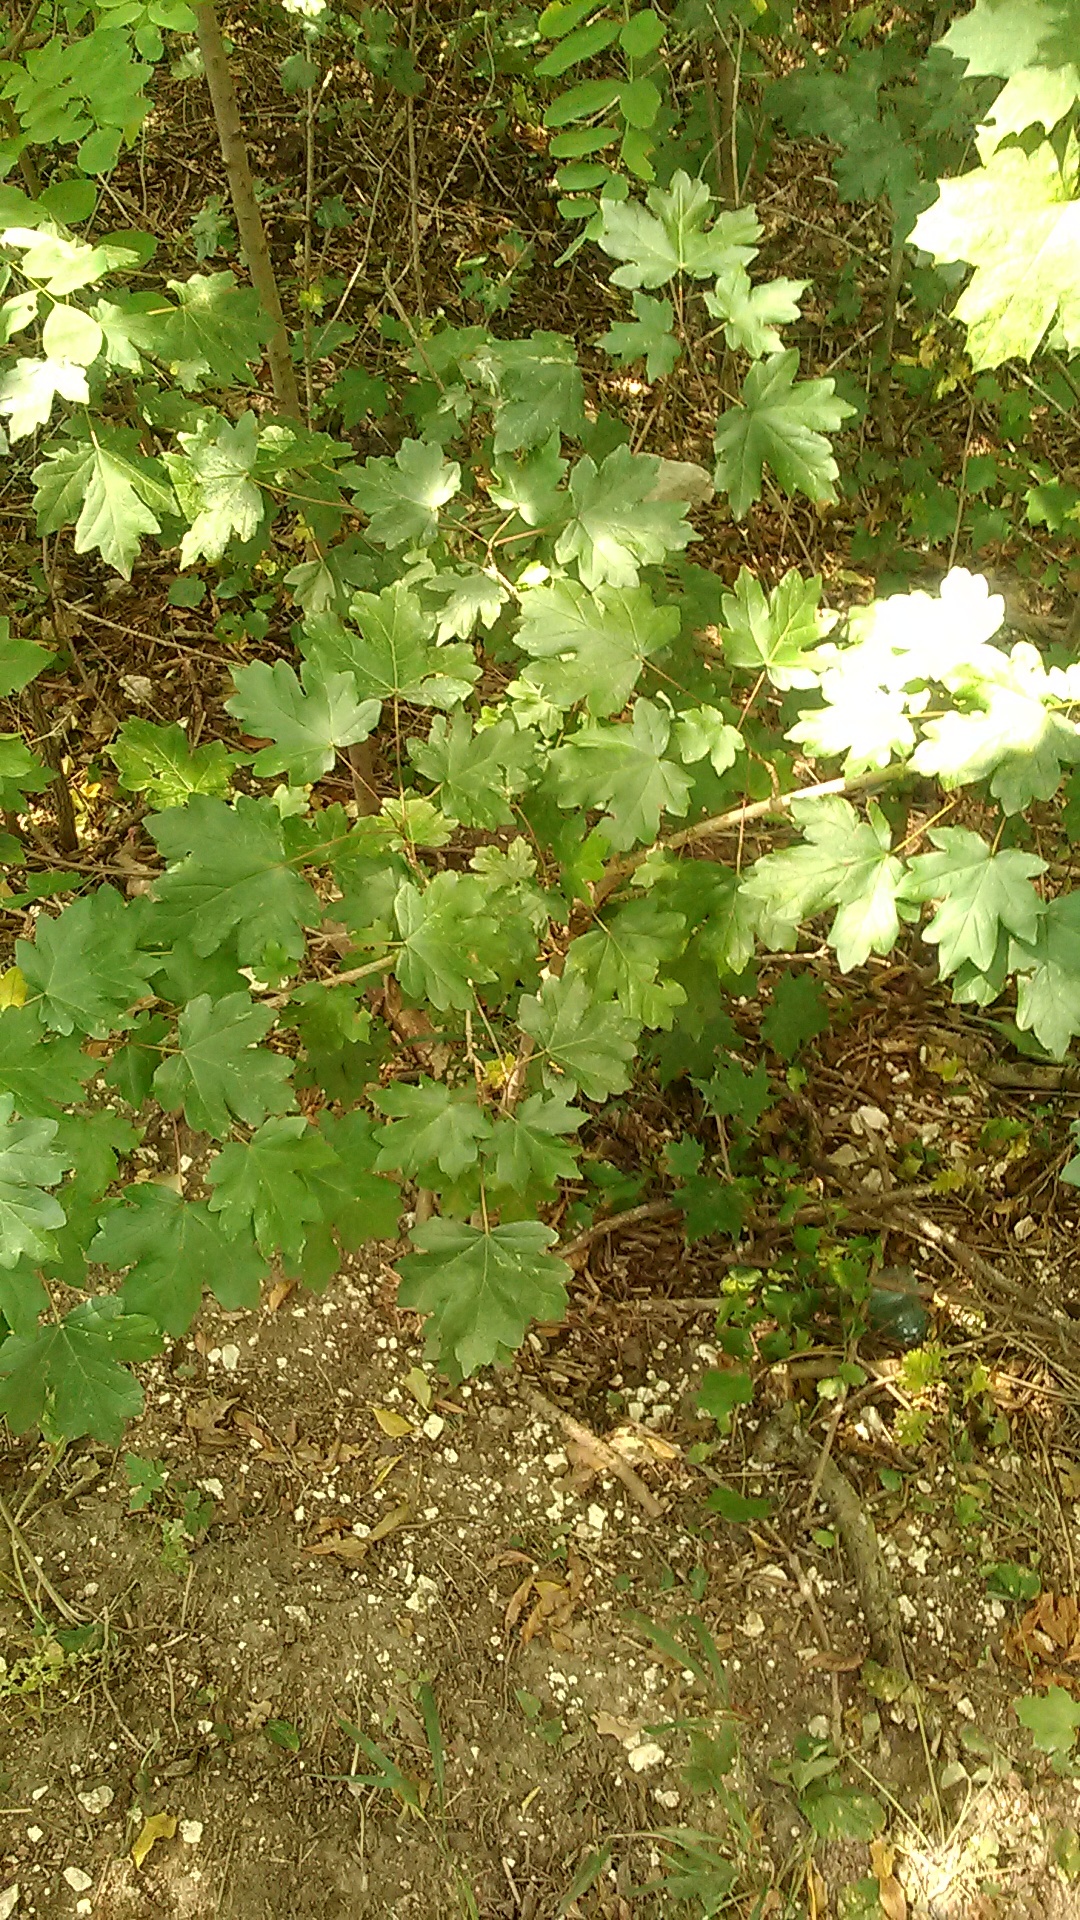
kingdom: Plantae
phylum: Tracheophyta
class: Magnoliopsida
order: Sapindales
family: Sapindaceae
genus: Acer
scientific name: Acer campestre
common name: Field maple
